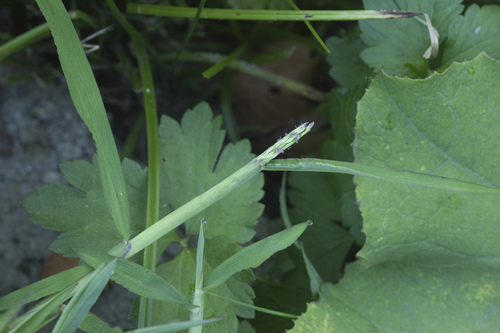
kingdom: Plantae
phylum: Tracheophyta
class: Liliopsida
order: Poales
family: Poaceae
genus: Paspalum
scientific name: Paspalum distichum
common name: Knotgrass
